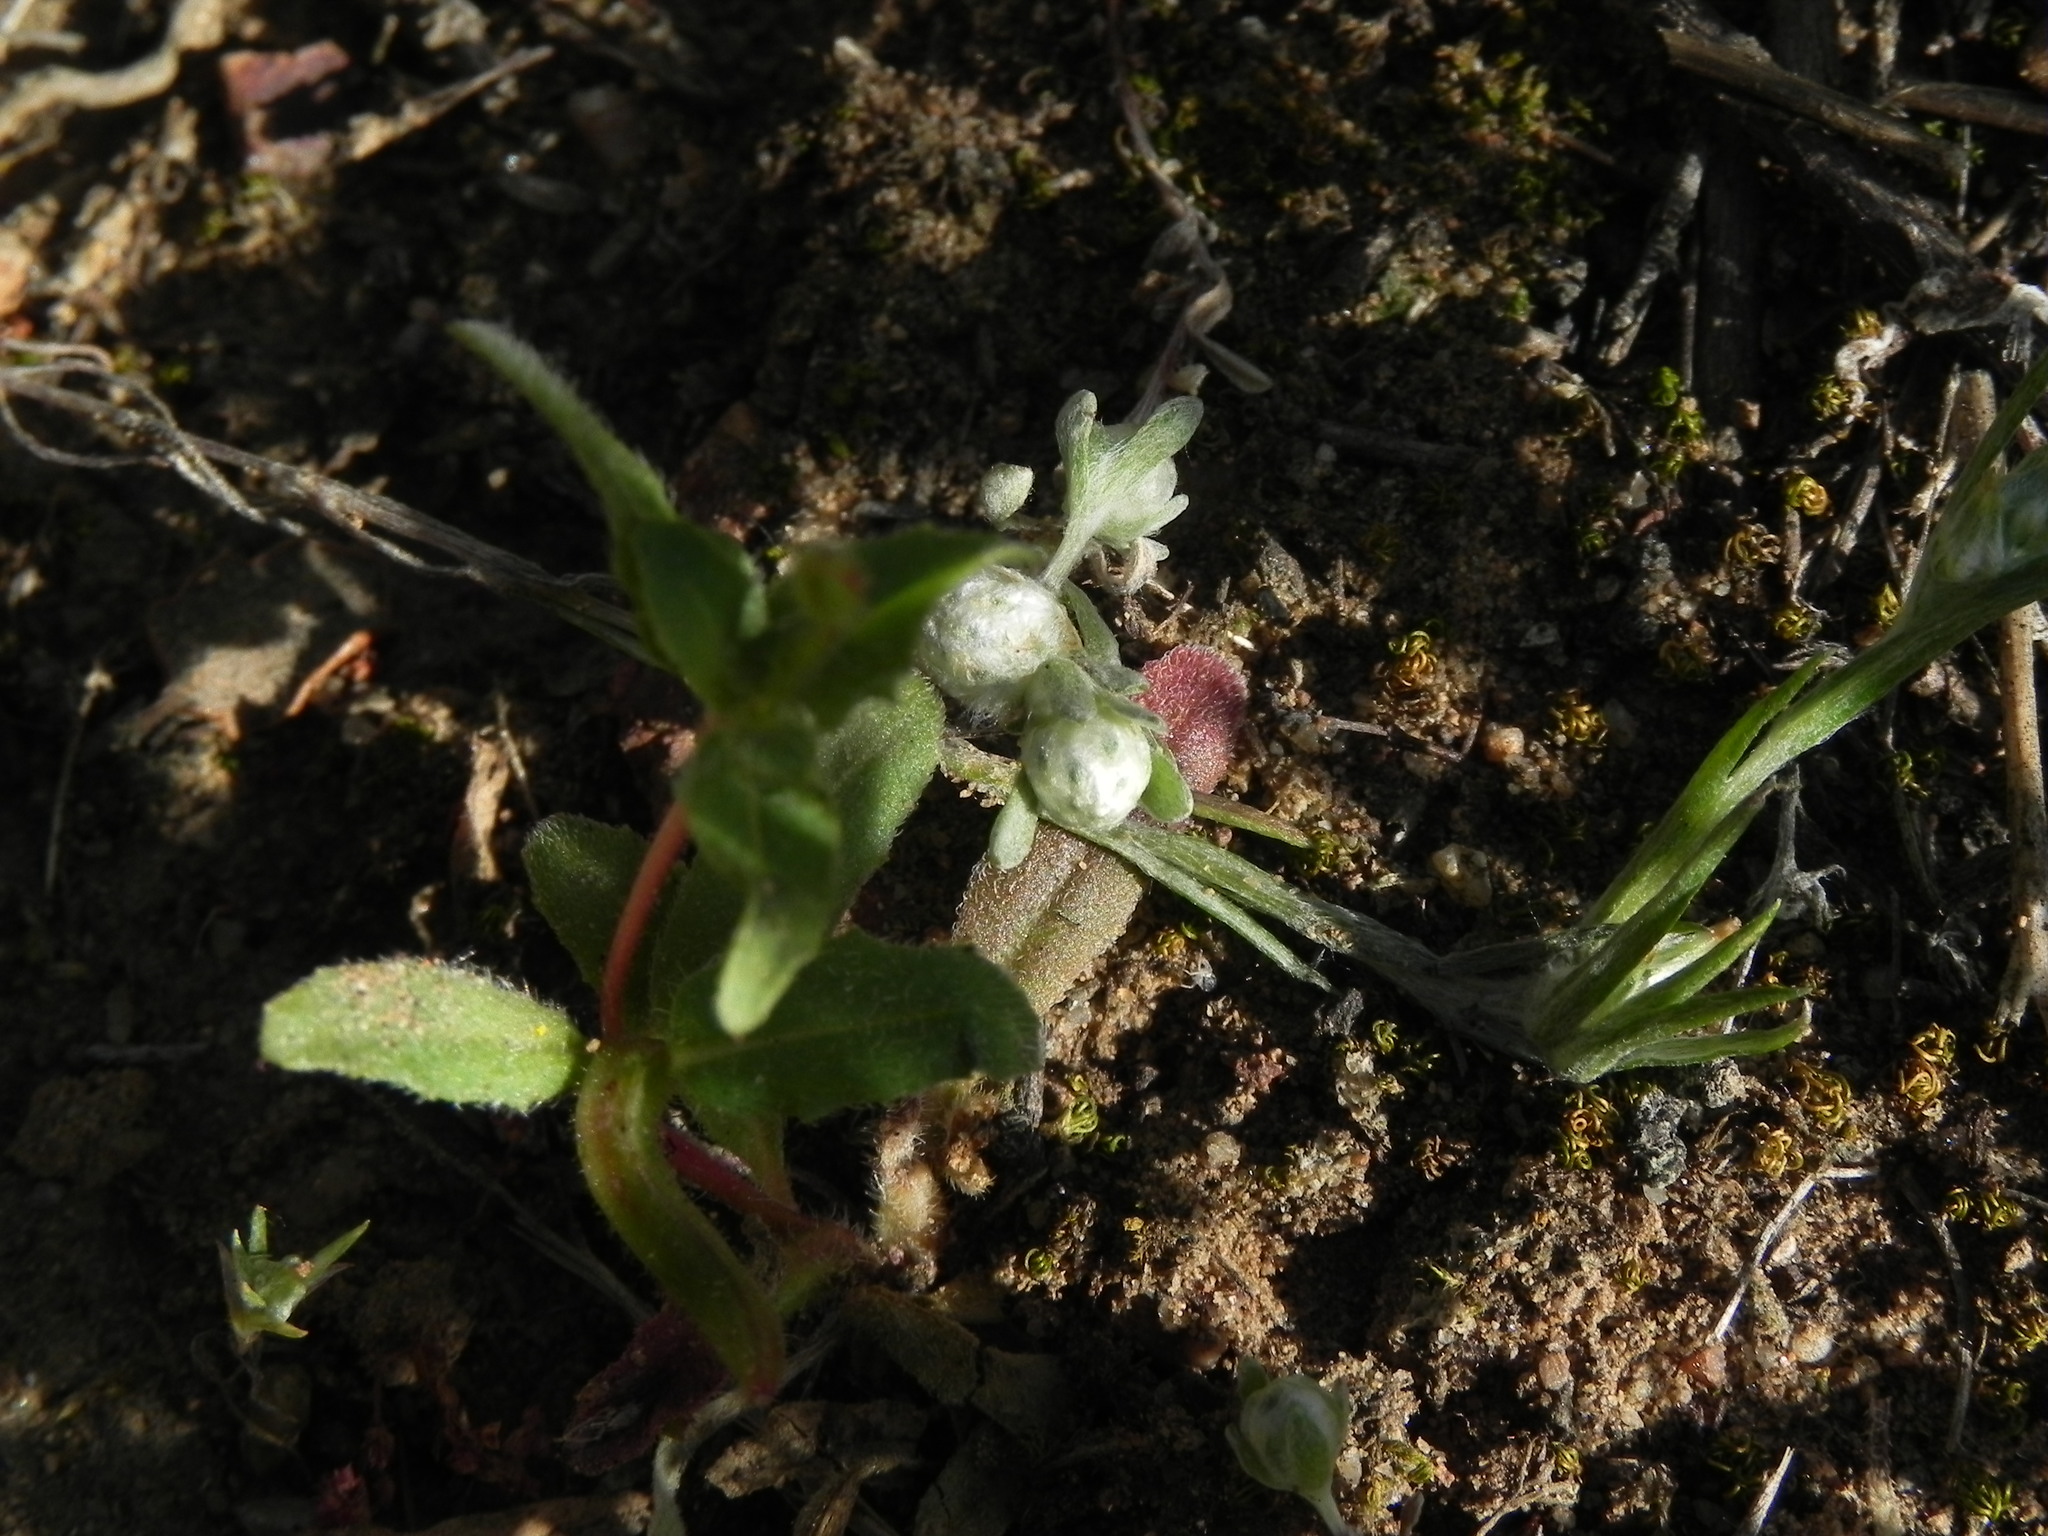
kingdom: Plantae
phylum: Tracheophyta
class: Magnoliopsida
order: Asterales
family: Asteraceae
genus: Stylocline
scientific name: Stylocline gnaphaloides
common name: Everlasting nest-straw
